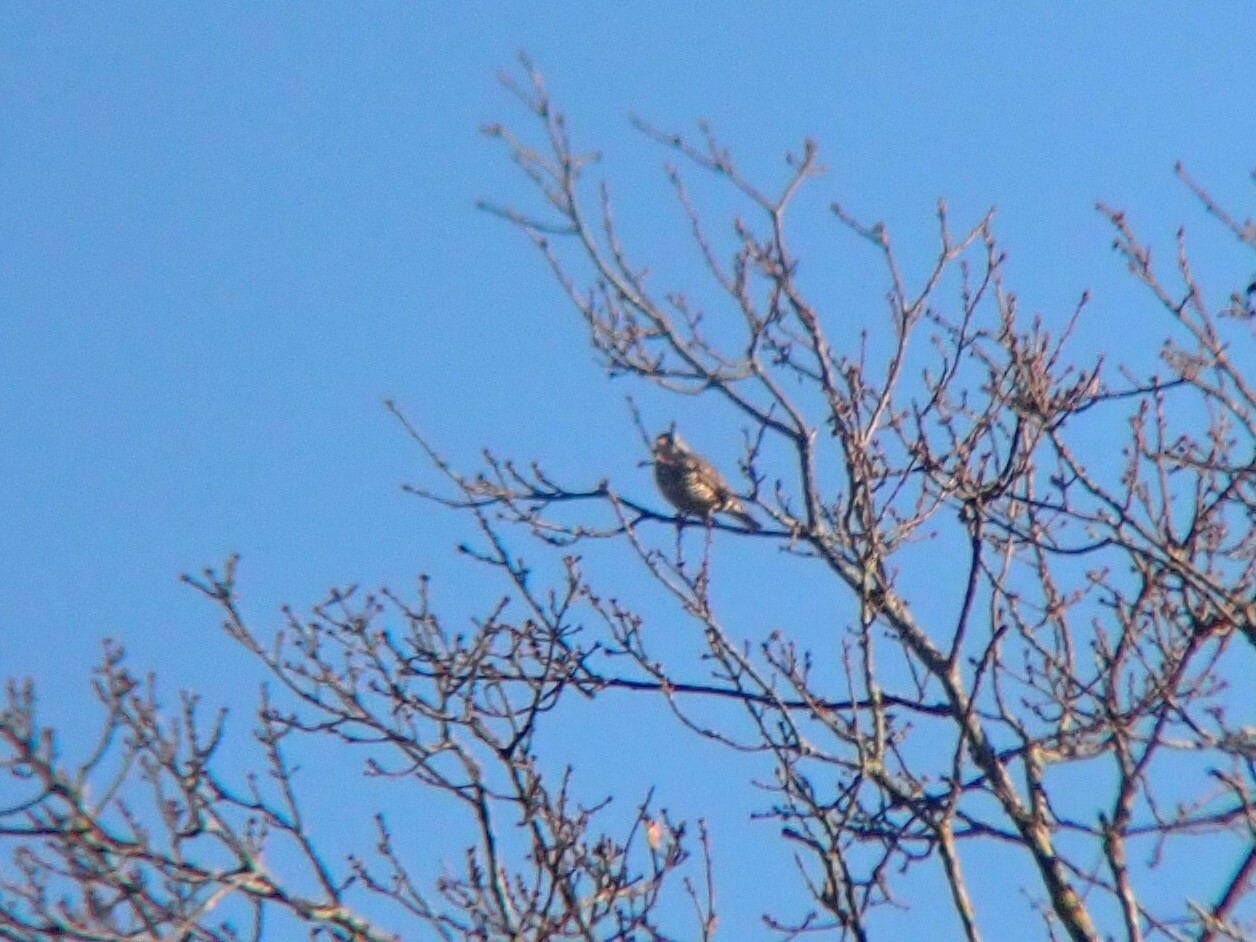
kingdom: Animalia
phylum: Chordata
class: Aves
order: Passeriformes
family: Turdidae
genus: Turdus
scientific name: Turdus viscivorus
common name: Mistle thrush
